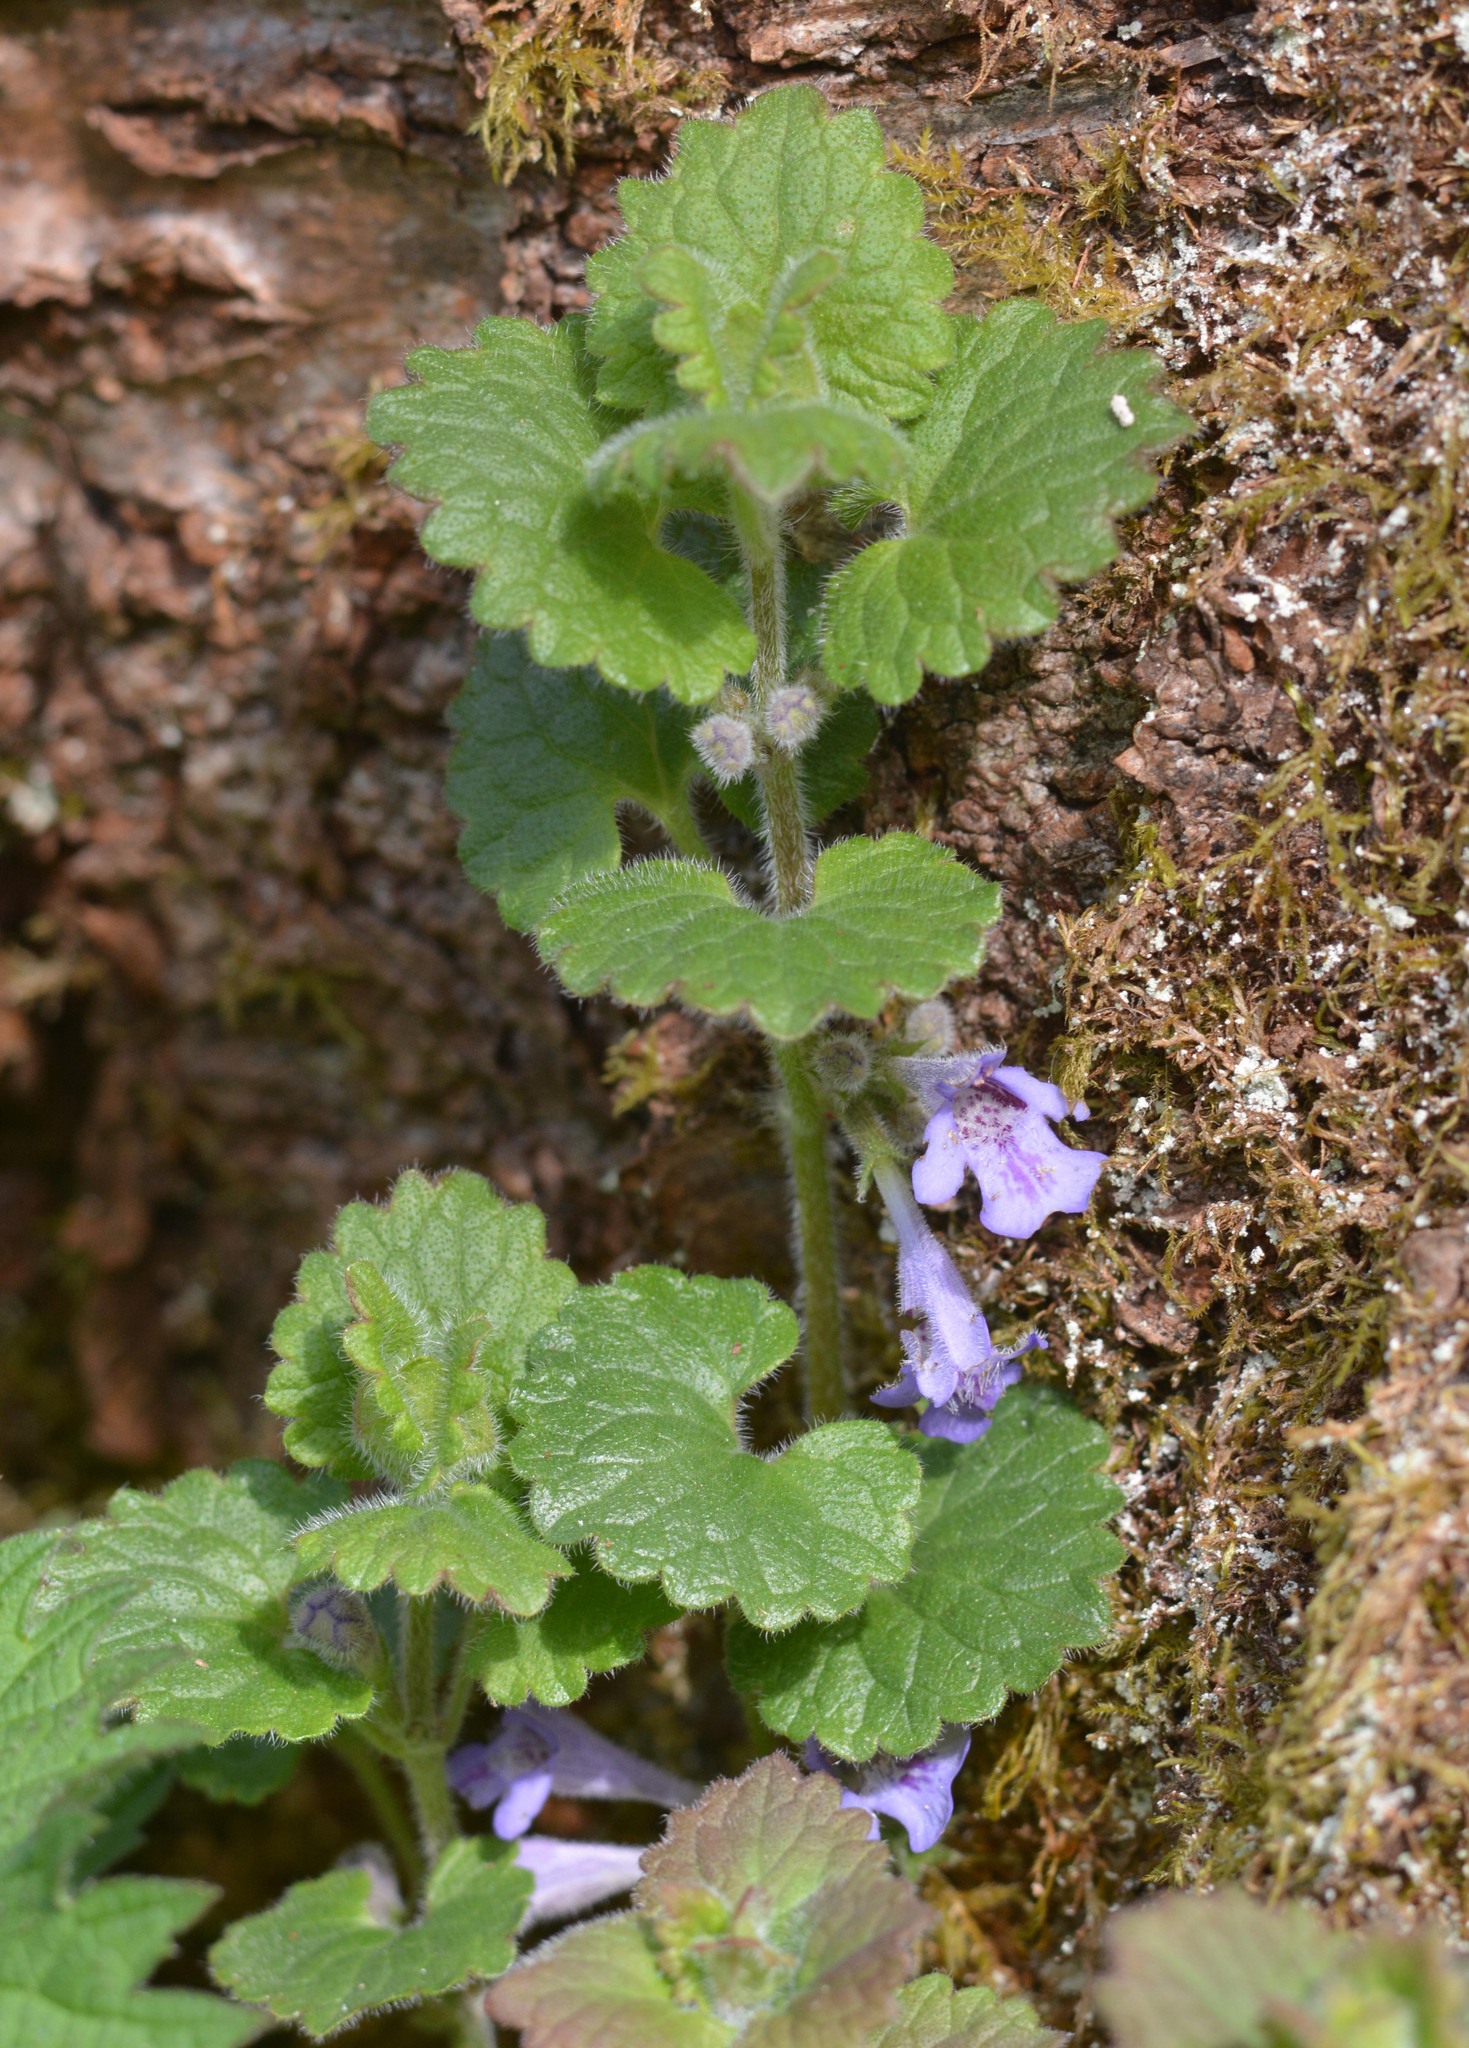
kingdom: Plantae
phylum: Tracheophyta
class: Magnoliopsida
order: Lamiales
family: Lamiaceae
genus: Glechoma
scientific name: Glechoma hederacea
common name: Ground ivy
